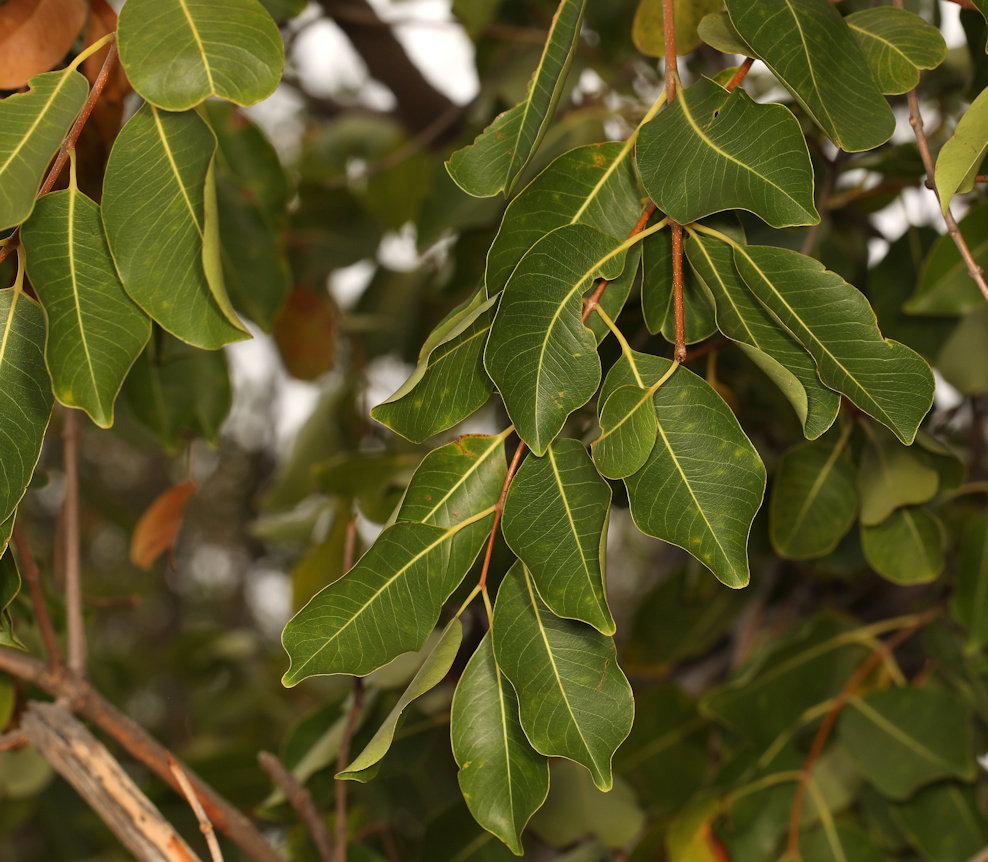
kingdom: Plantae
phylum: Tracheophyta
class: Magnoliopsida
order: Gentianales
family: Apocynaceae
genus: Diplorhynchus
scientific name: Diplorhynchus condylocarpon
